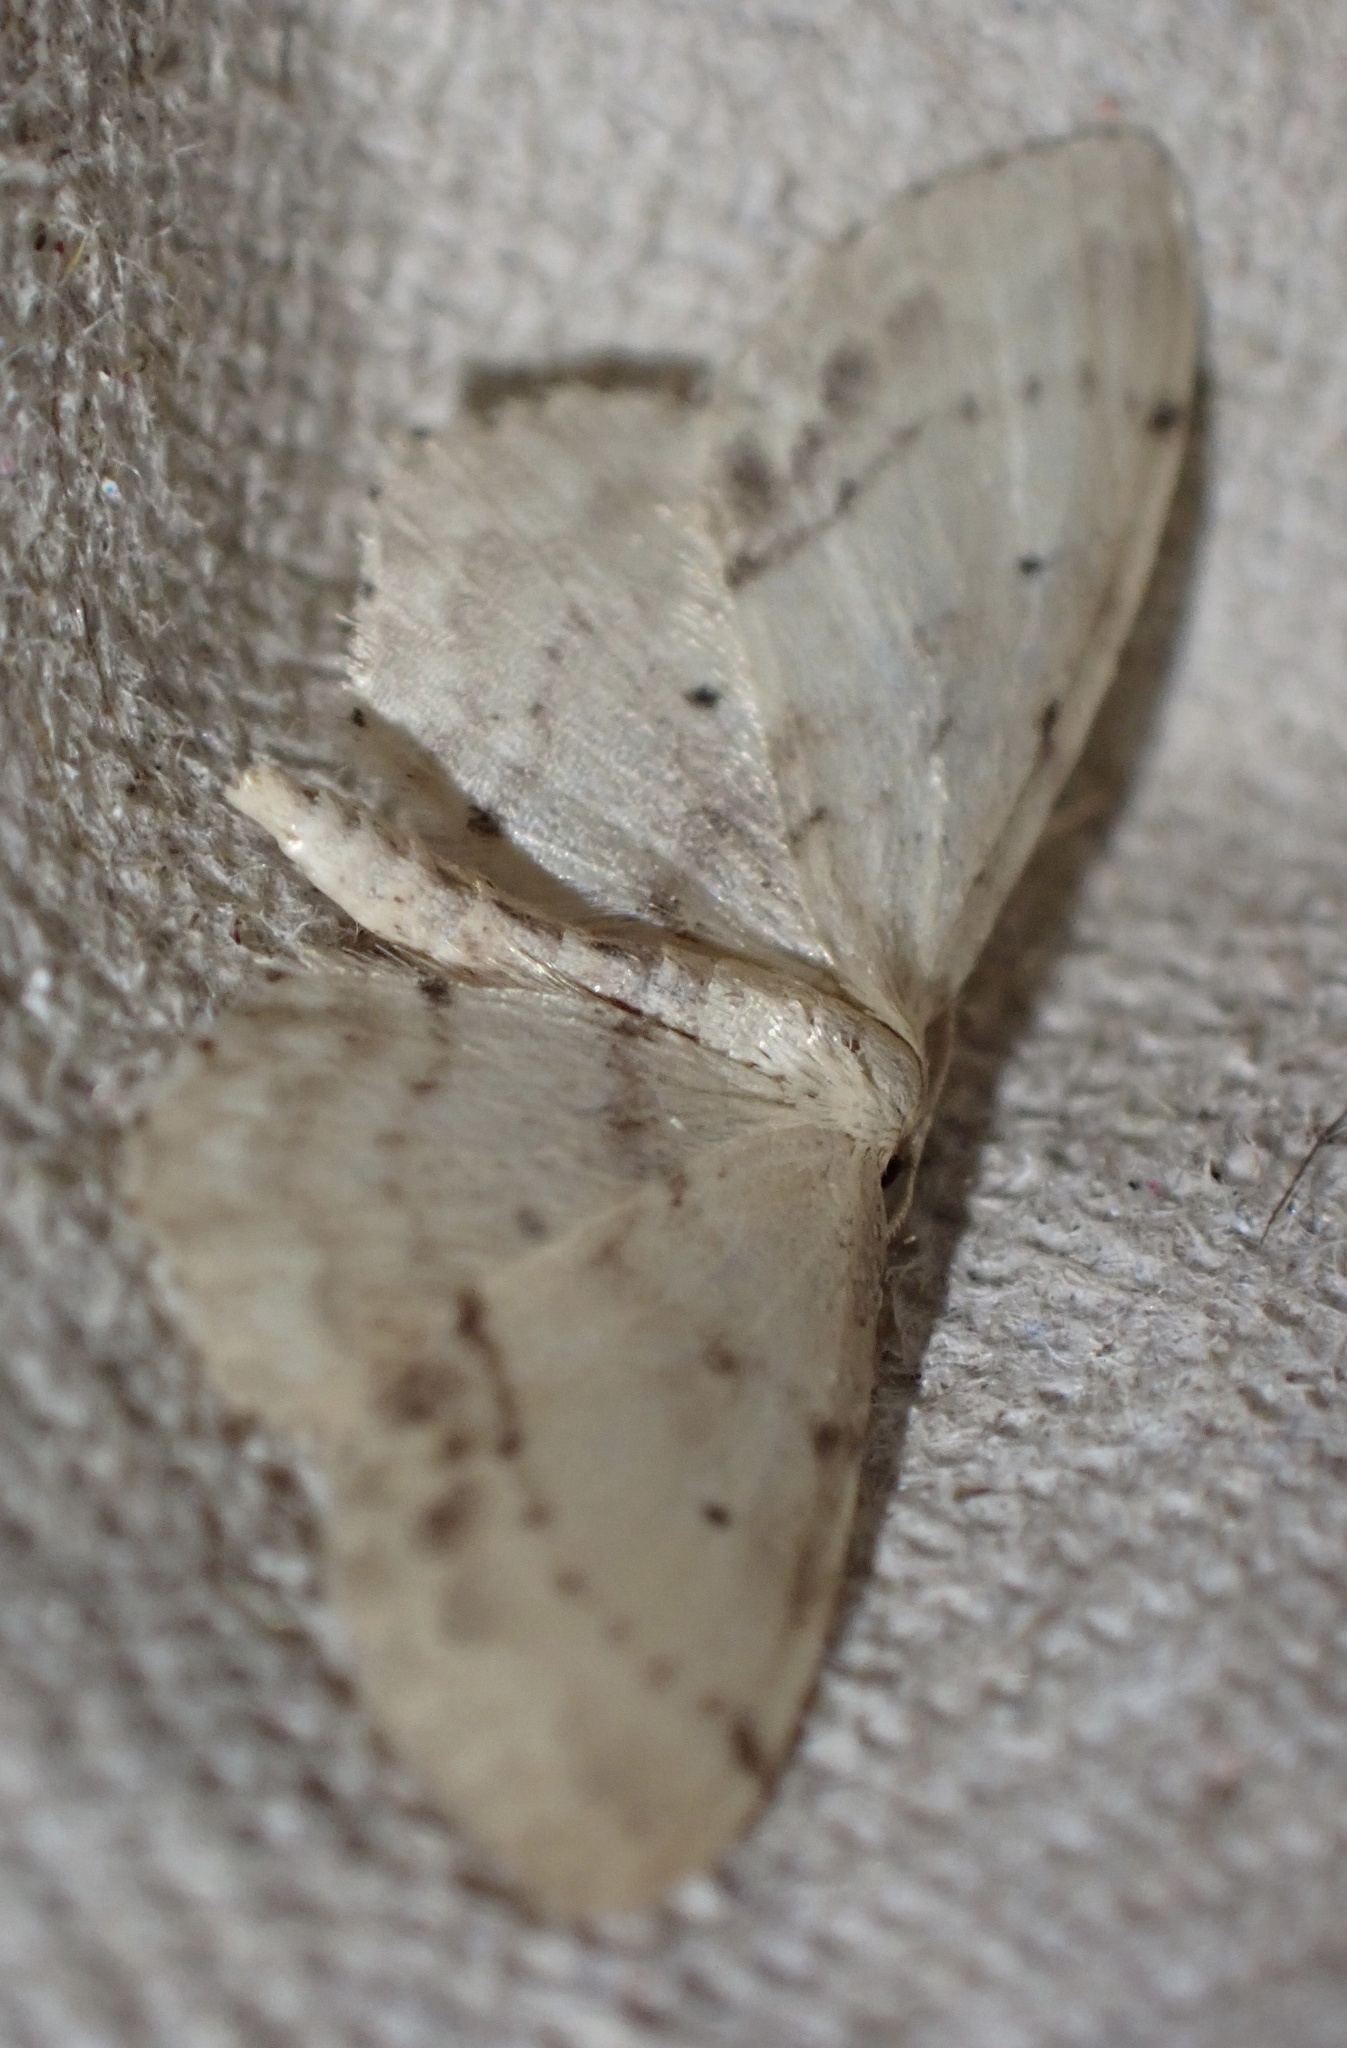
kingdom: Animalia
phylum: Arthropoda
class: Insecta
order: Lepidoptera
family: Geometridae
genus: Idaea
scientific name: Idaea dimidiata
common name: Single-dotted wave
